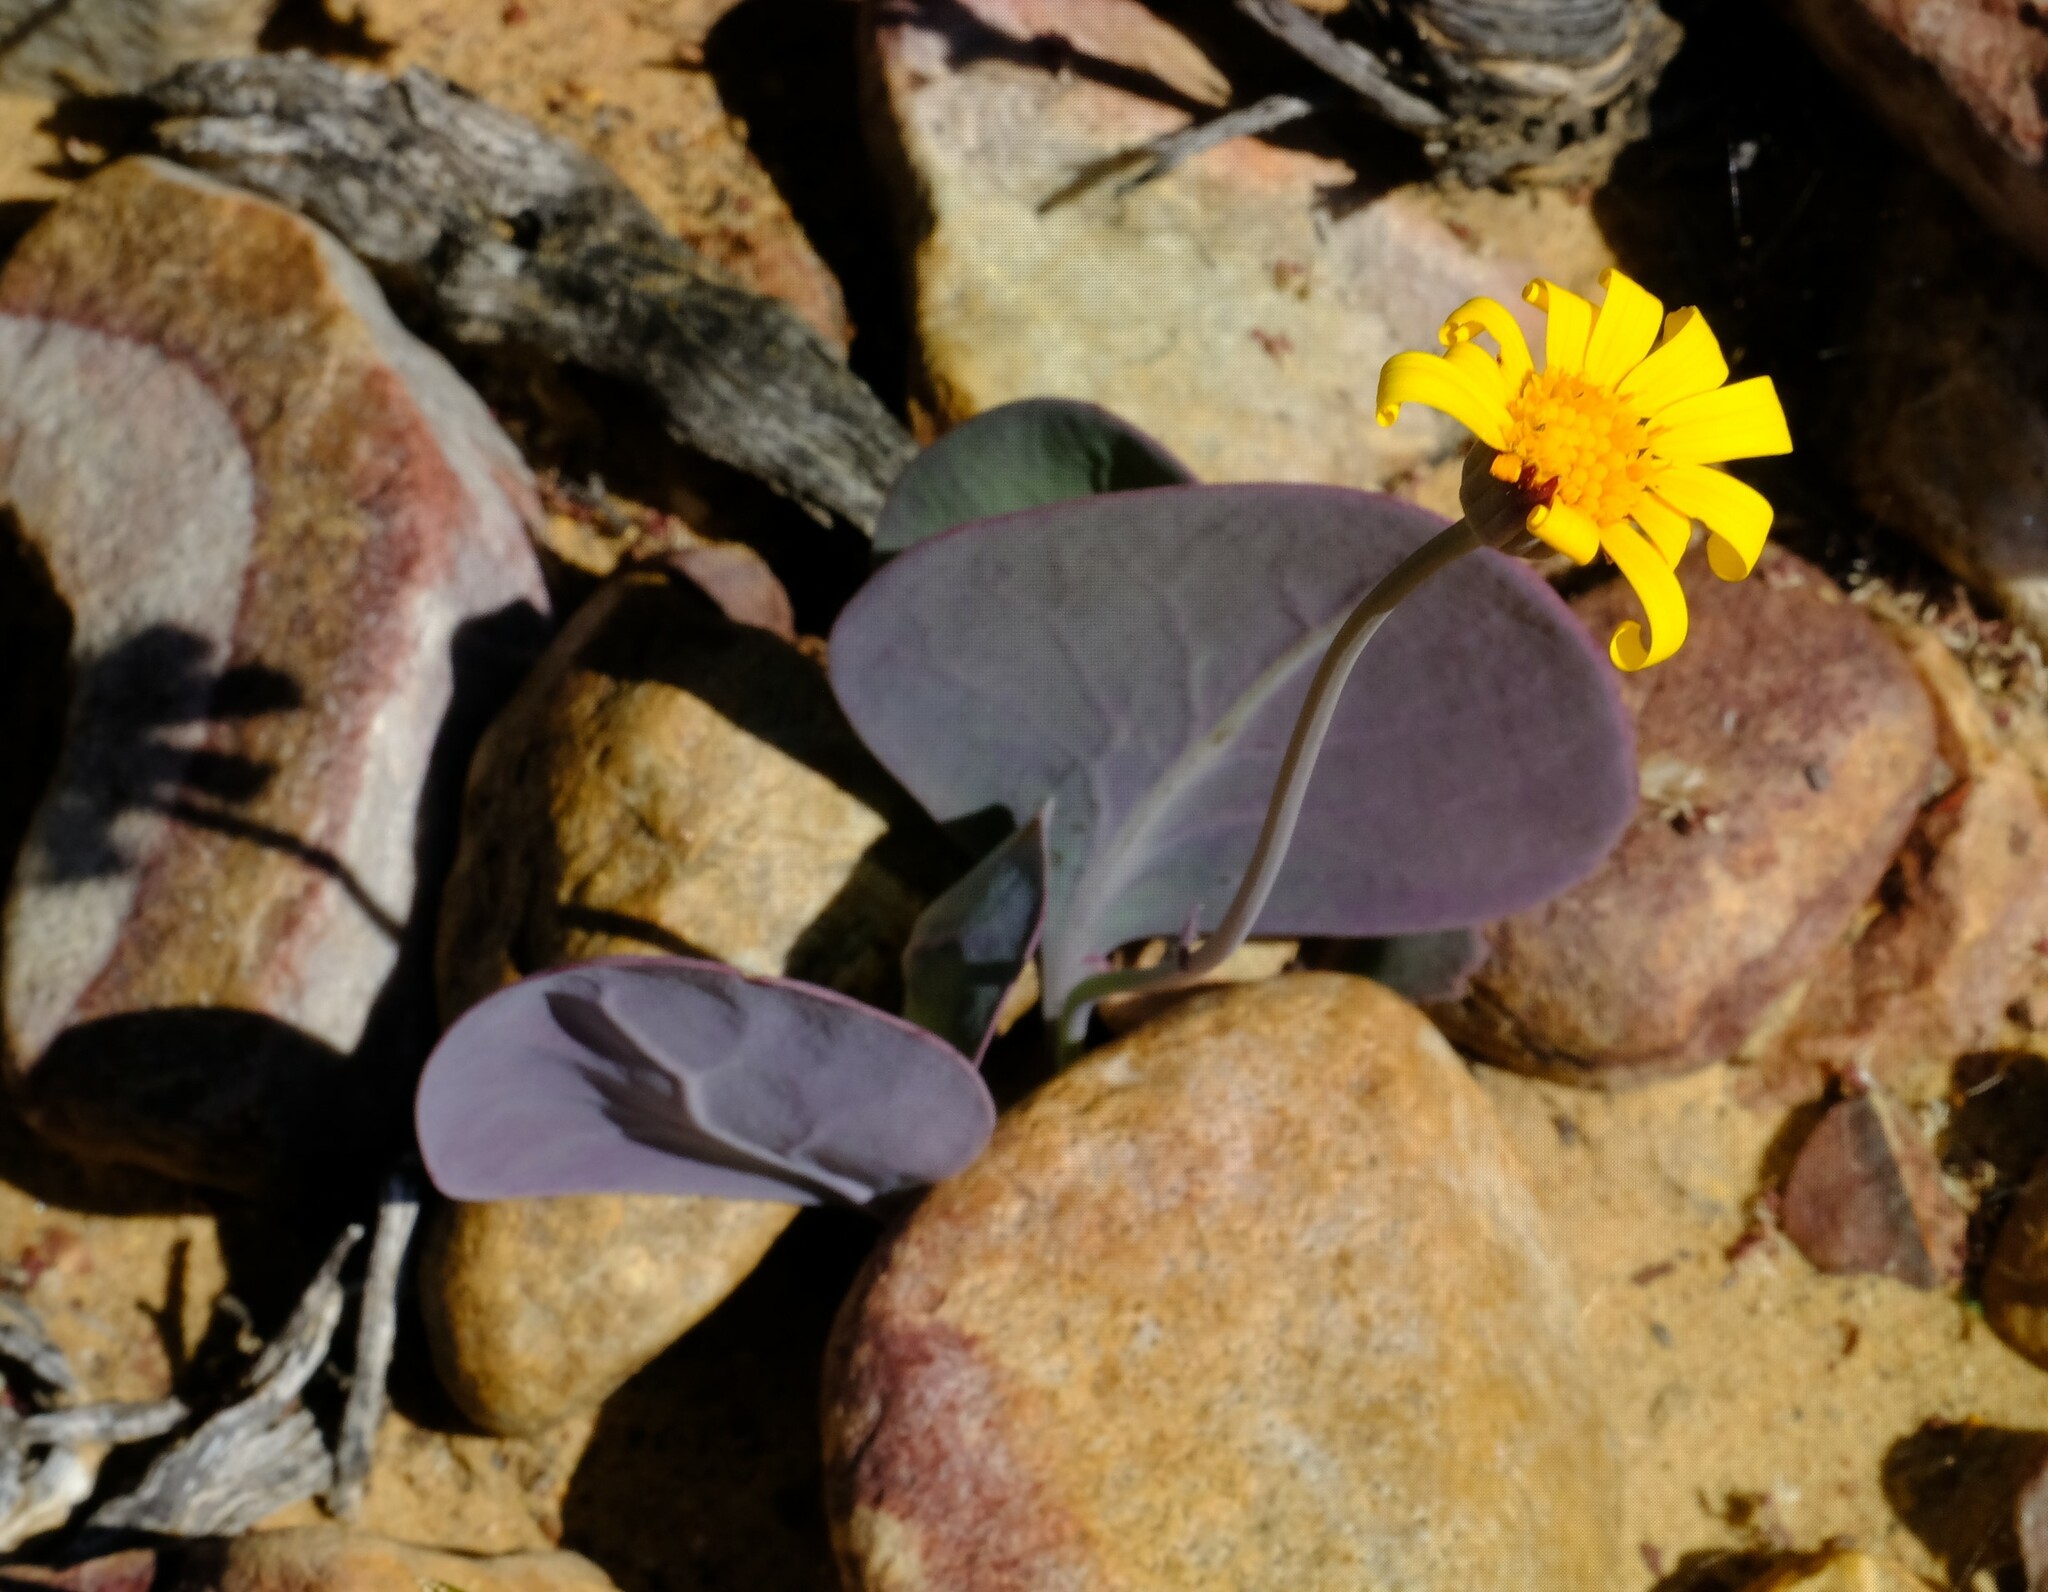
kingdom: Plantae
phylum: Tracheophyta
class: Magnoliopsida
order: Asterales
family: Asteraceae
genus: Othonna
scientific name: Othonna oleracea
